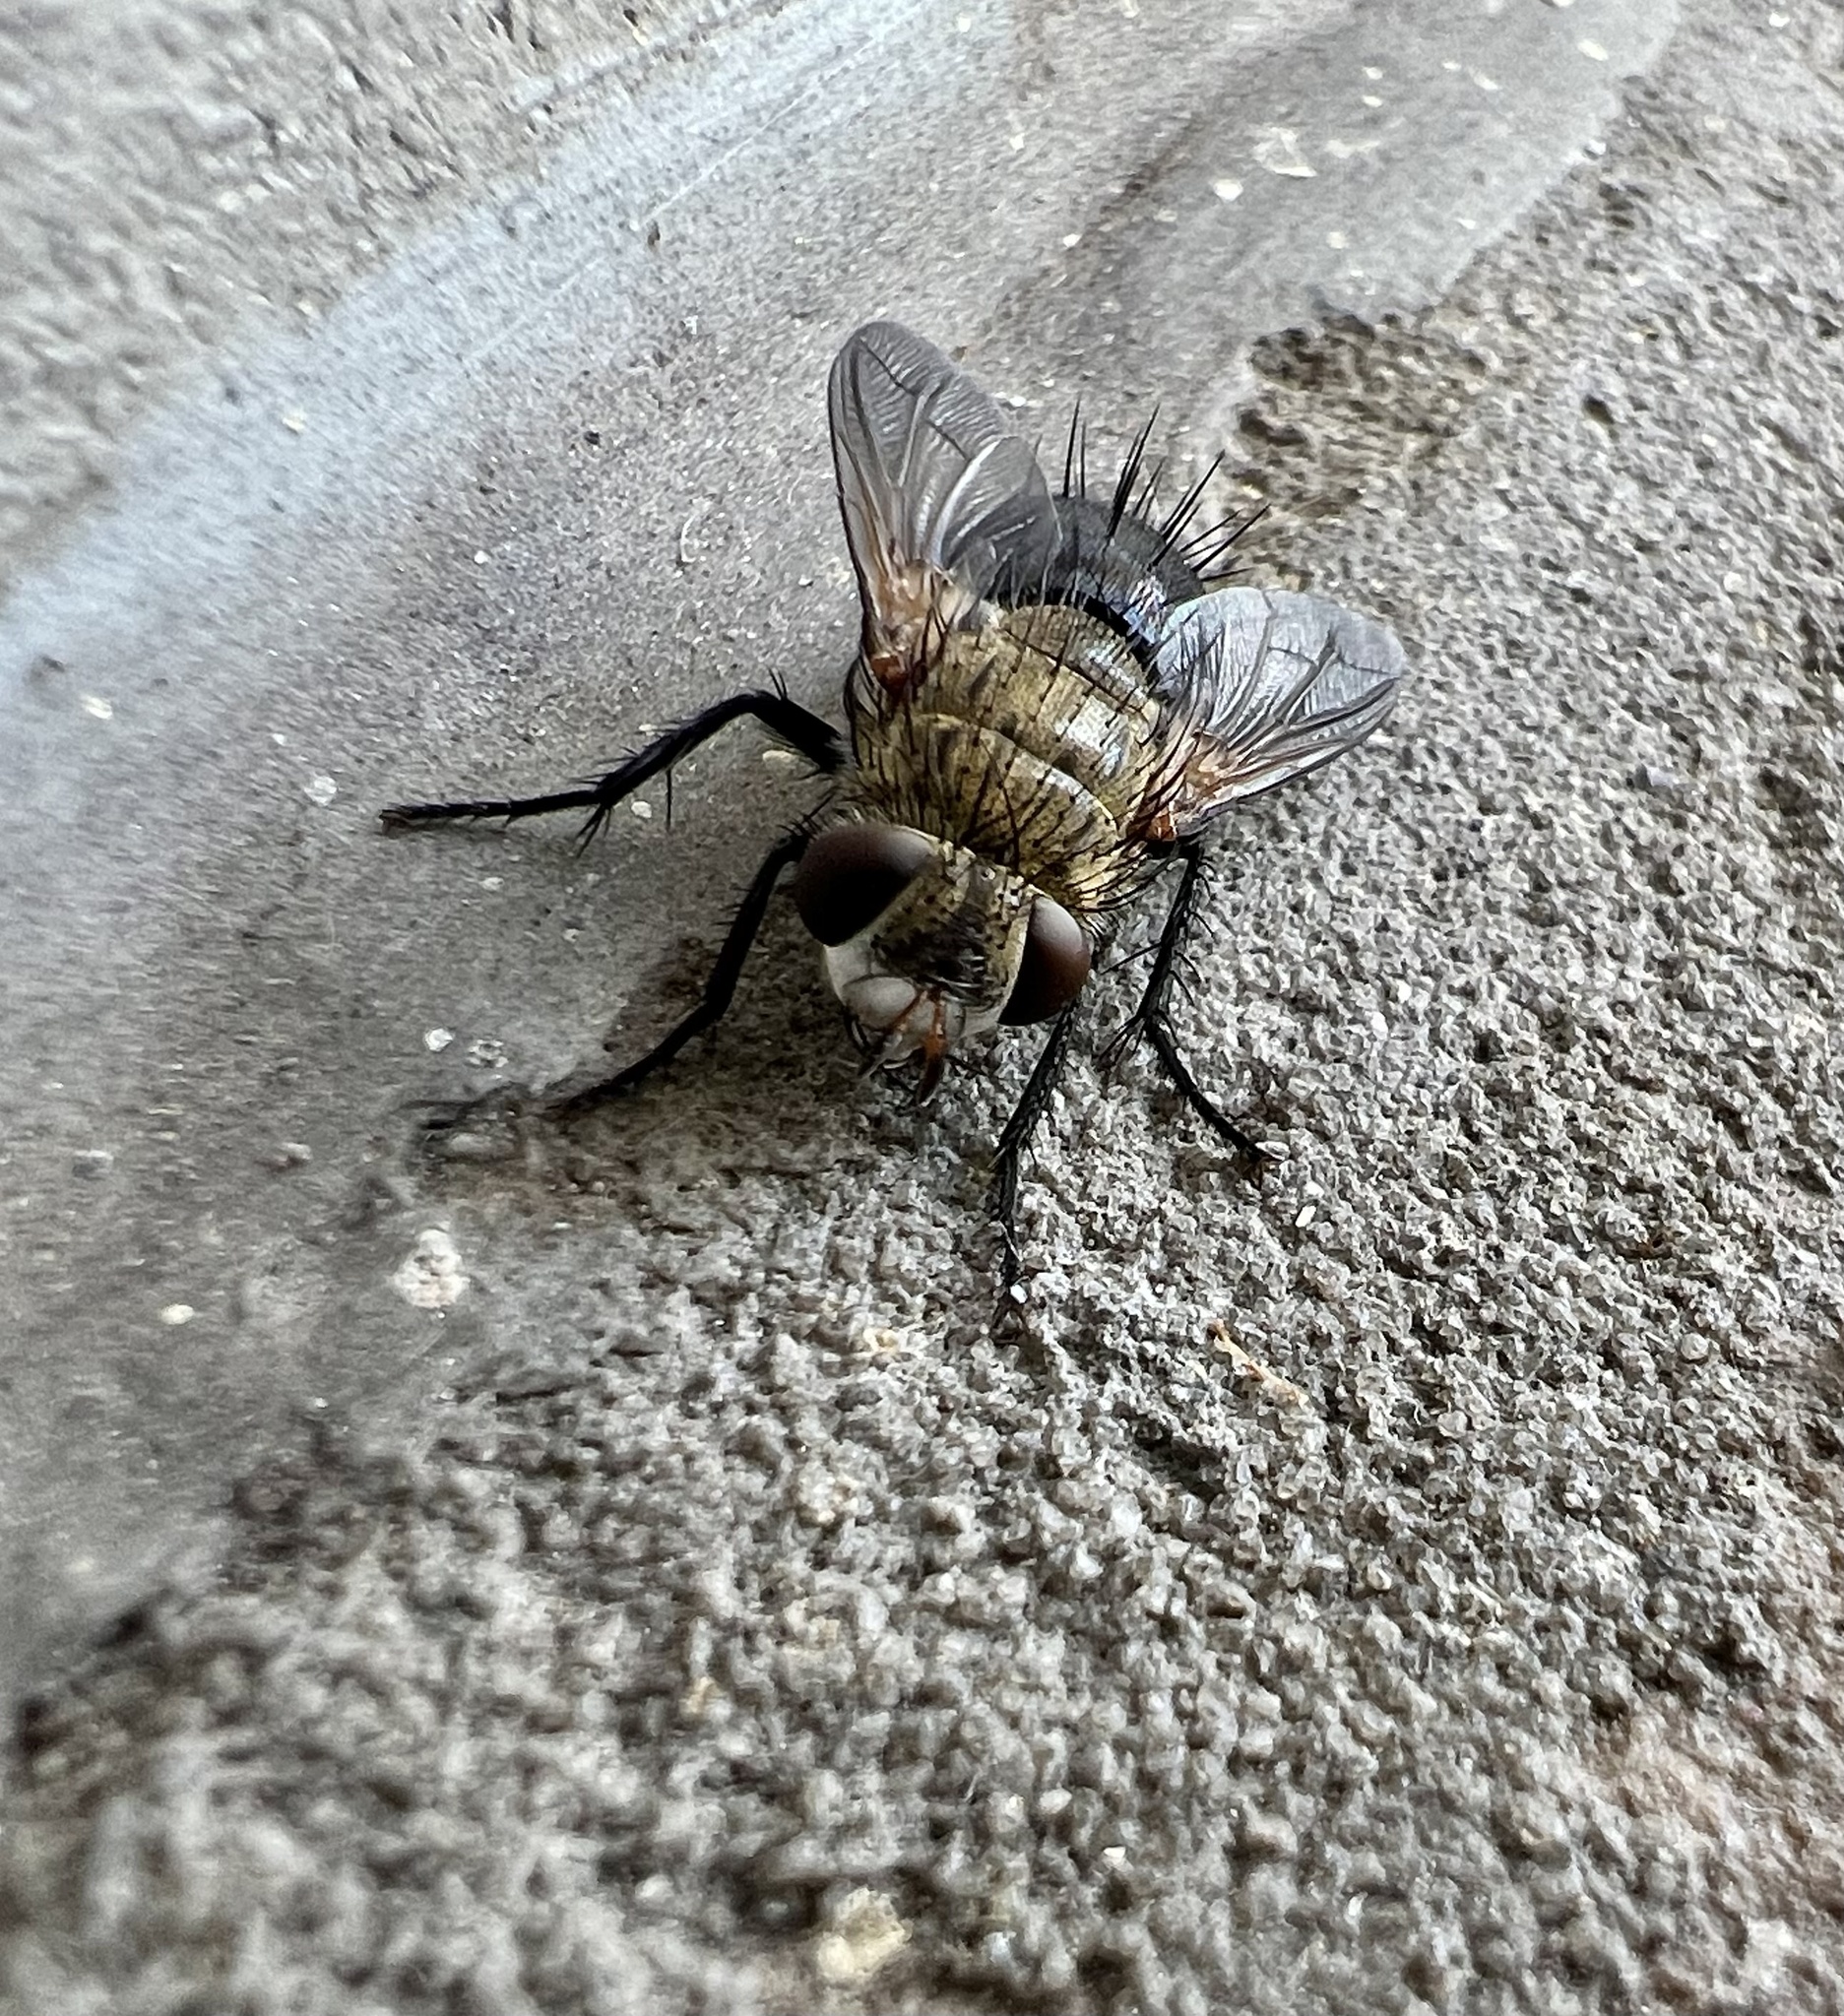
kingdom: Animalia
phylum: Arthropoda
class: Insecta
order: Diptera
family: Tachinidae
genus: Archytas
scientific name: Archytas apicifer
